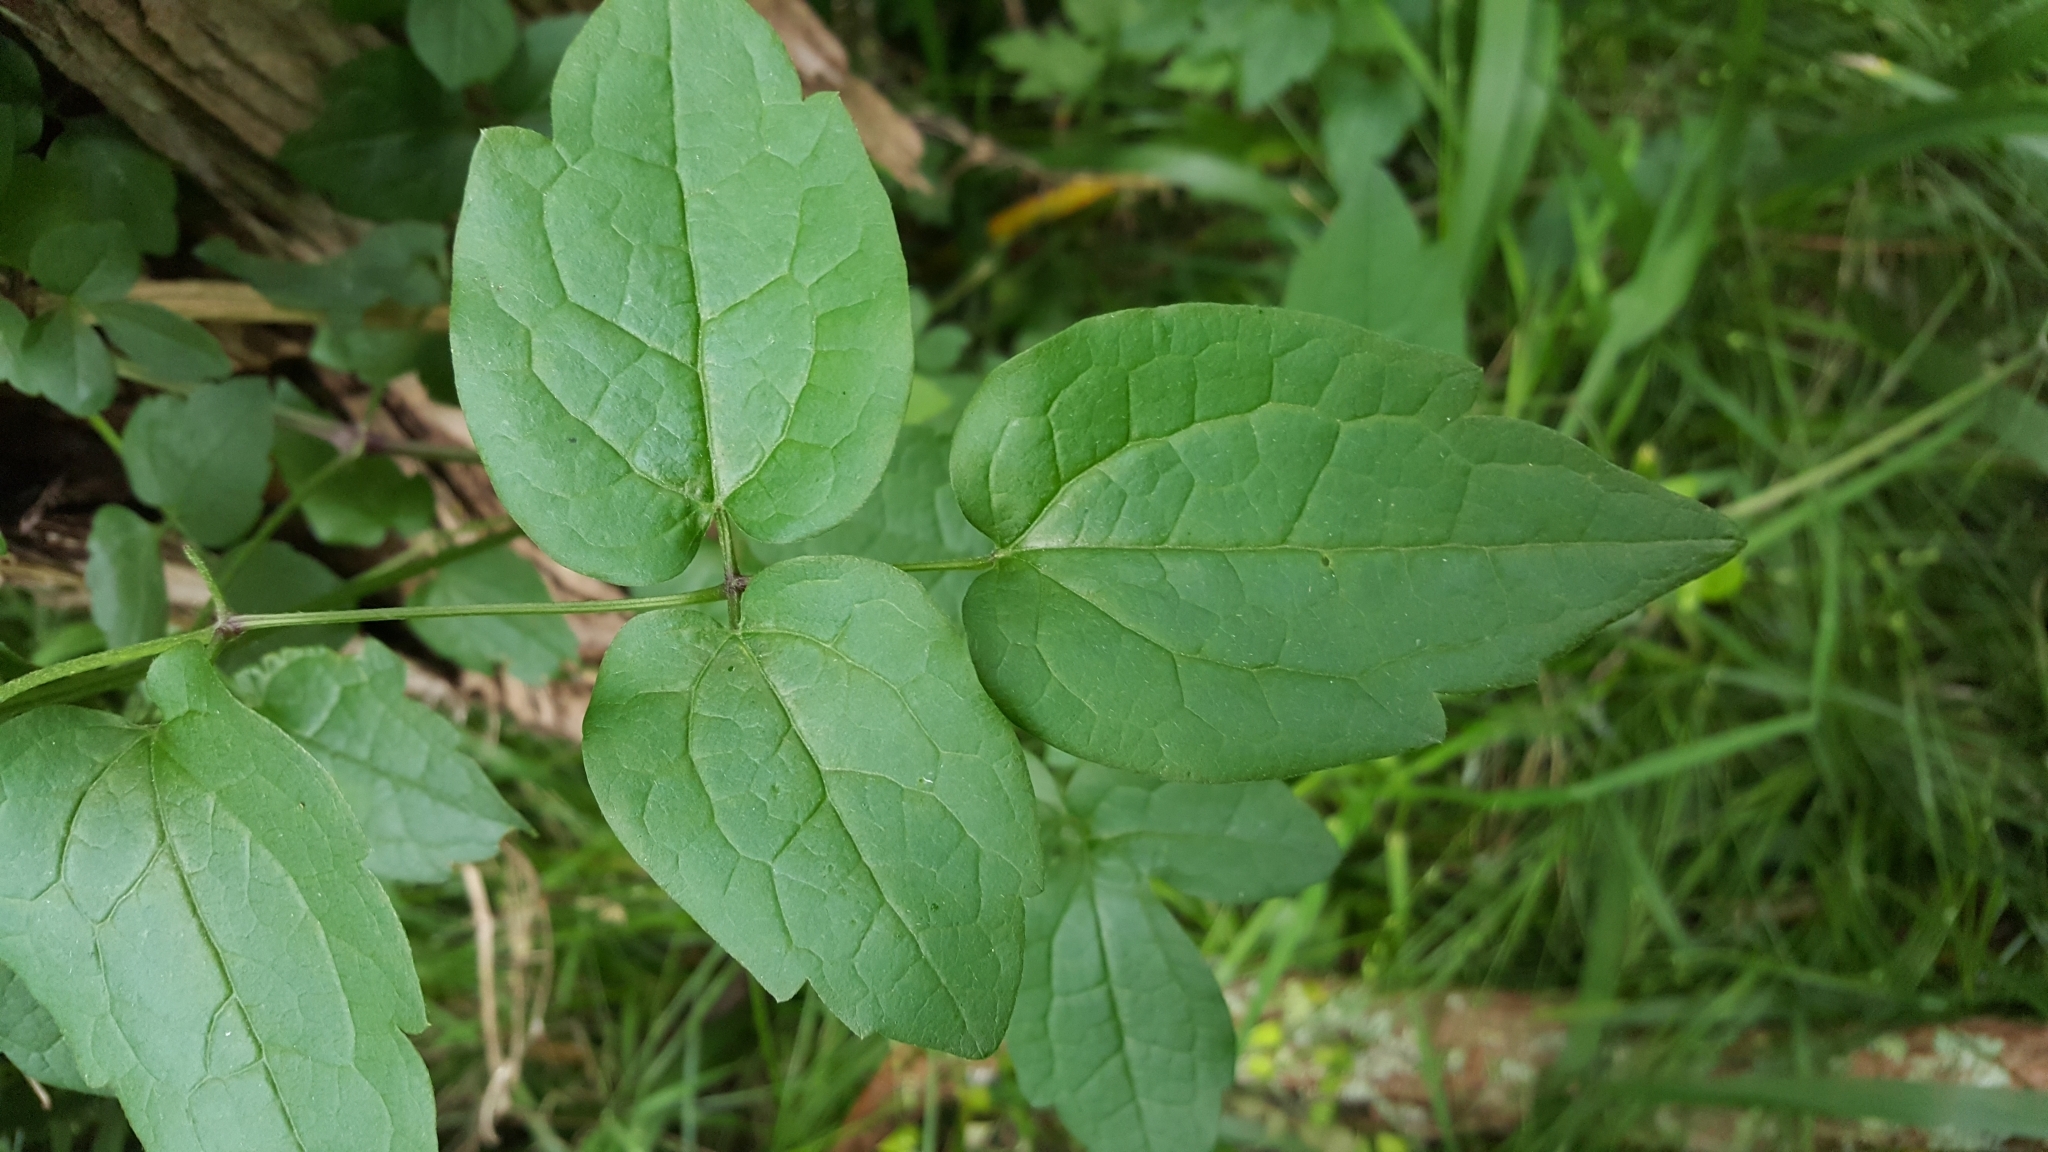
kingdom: Plantae
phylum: Tracheophyta
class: Magnoliopsida
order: Ranunculales
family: Ranunculaceae
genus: Clematis
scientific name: Clematis vitalba
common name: Evergreen clematis
